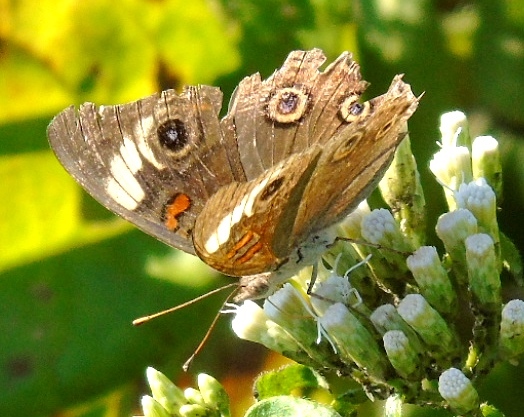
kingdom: Animalia
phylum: Arthropoda
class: Insecta
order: Lepidoptera
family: Nymphalidae
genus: Junonia
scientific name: Junonia
